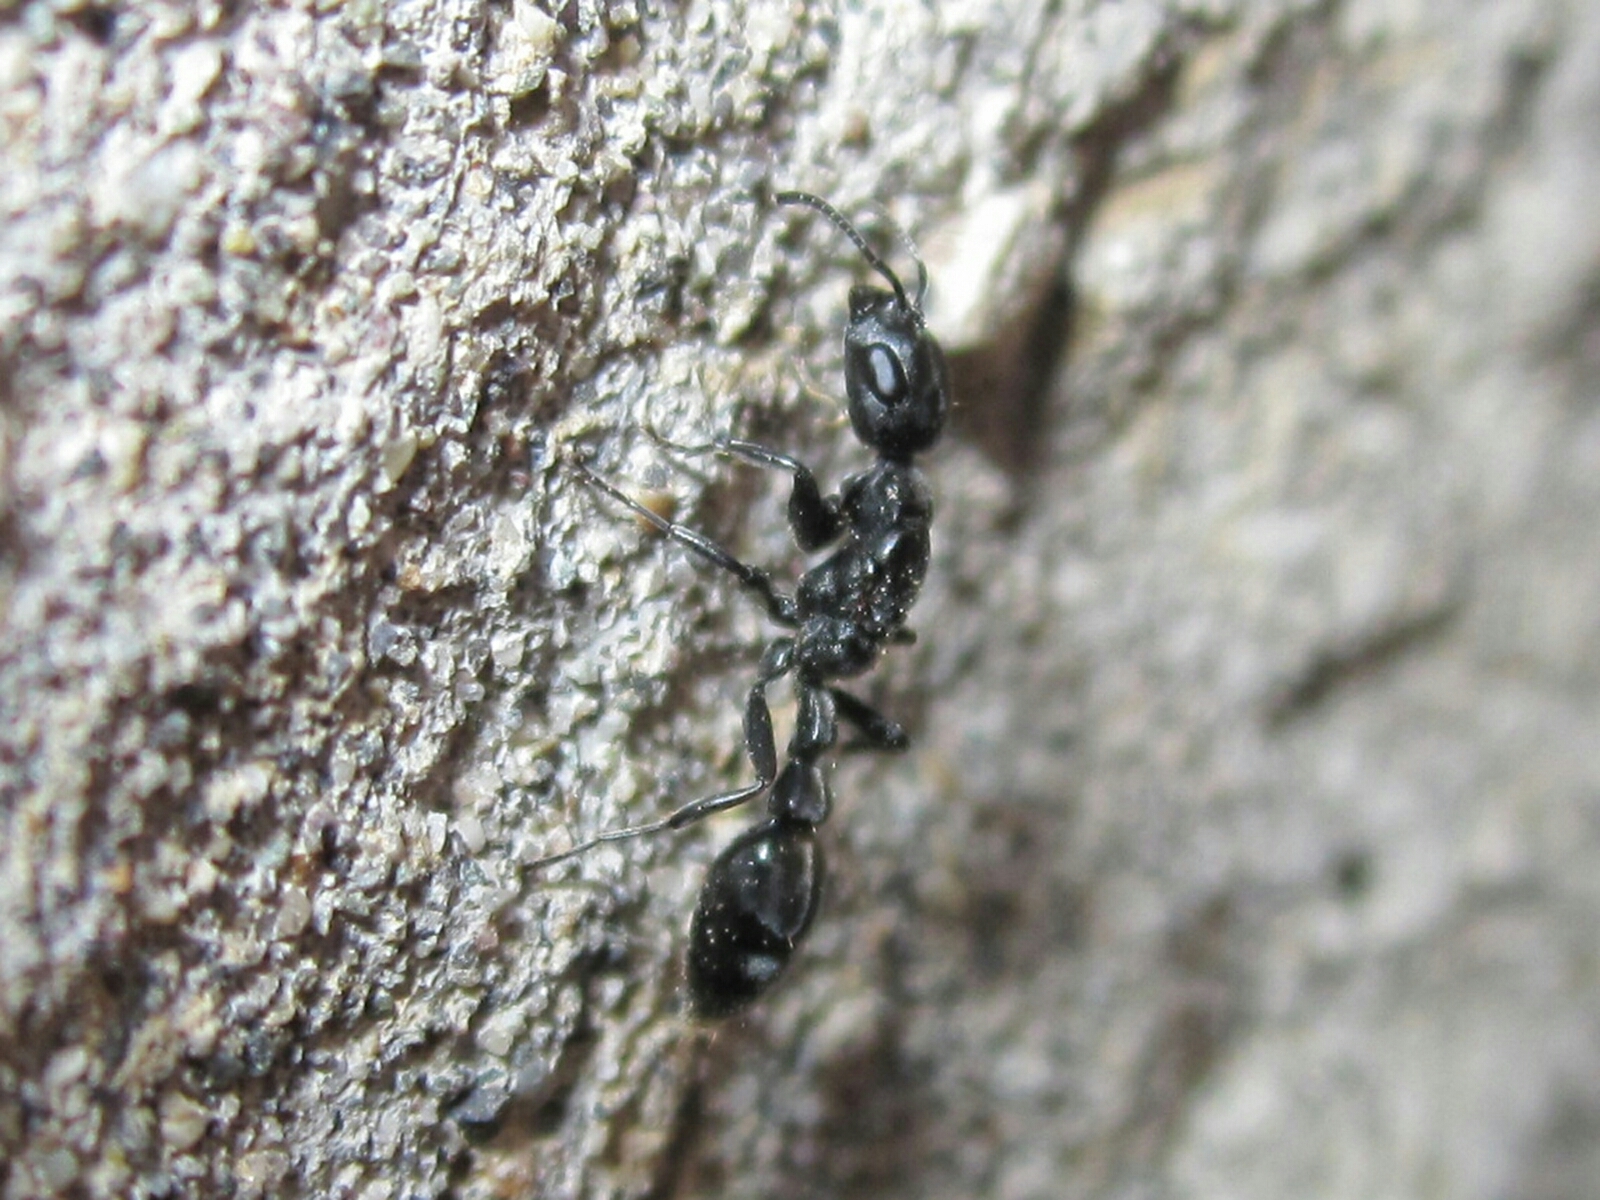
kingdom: Animalia
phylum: Arthropoda
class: Insecta
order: Hymenoptera
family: Formicidae
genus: Pseudomyrmex
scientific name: Pseudomyrmex lynceus
